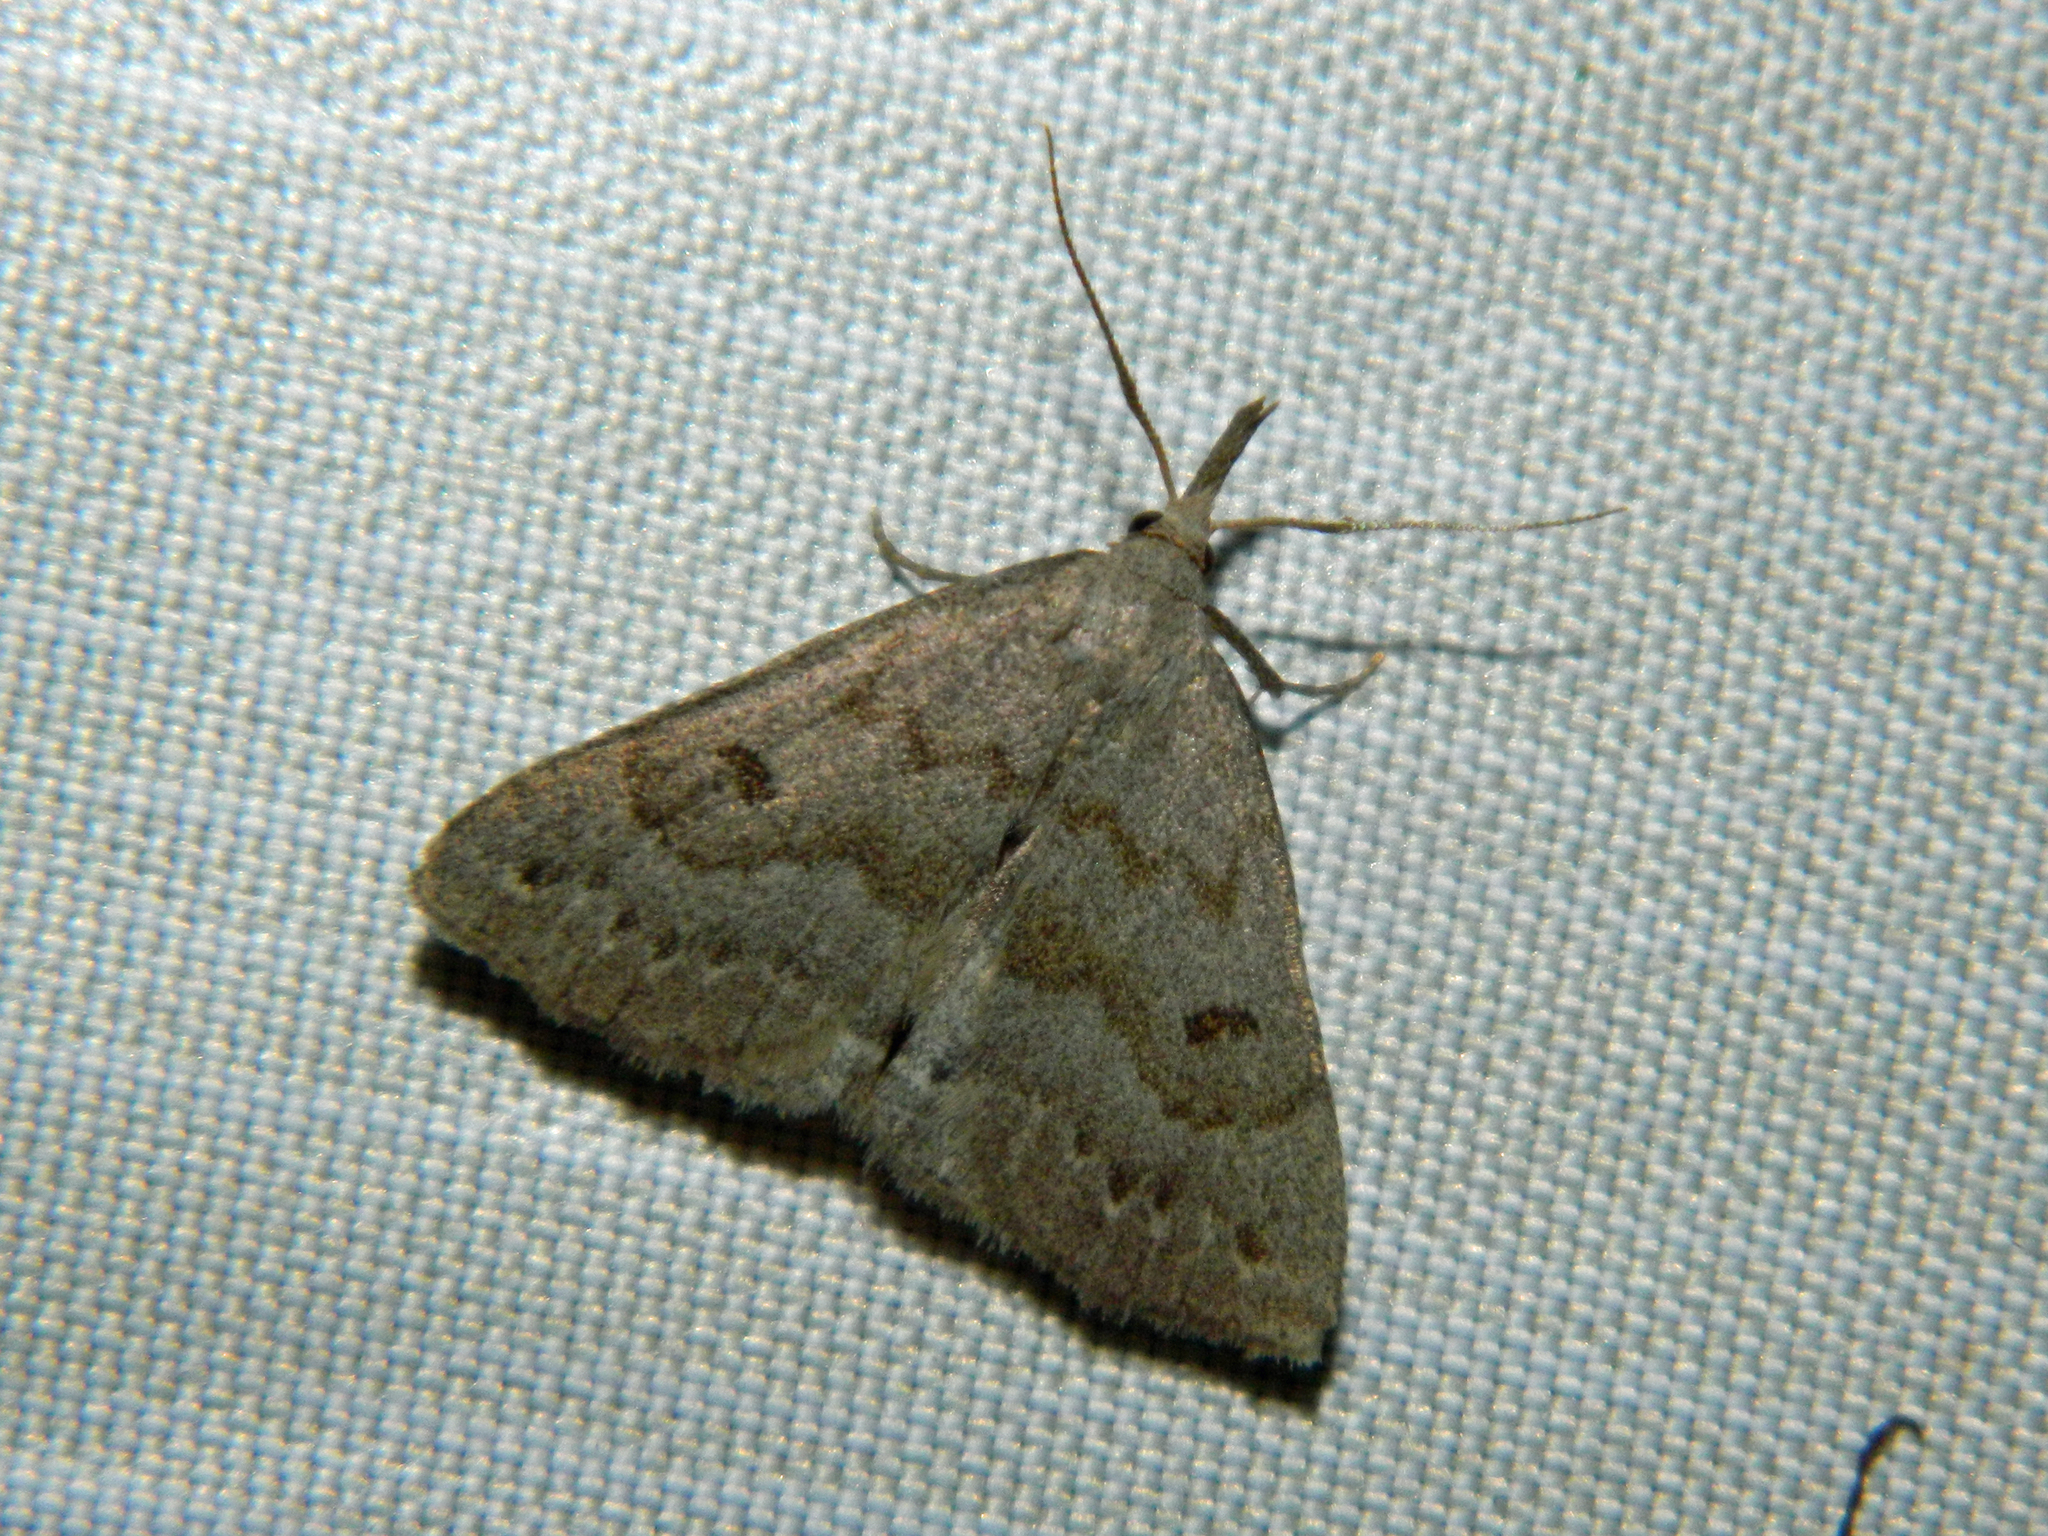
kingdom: Animalia
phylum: Arthropoda
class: Insecta
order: Lepidoptera
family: Erebidae
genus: Macrochilo
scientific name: Macrochilo morbidalis
